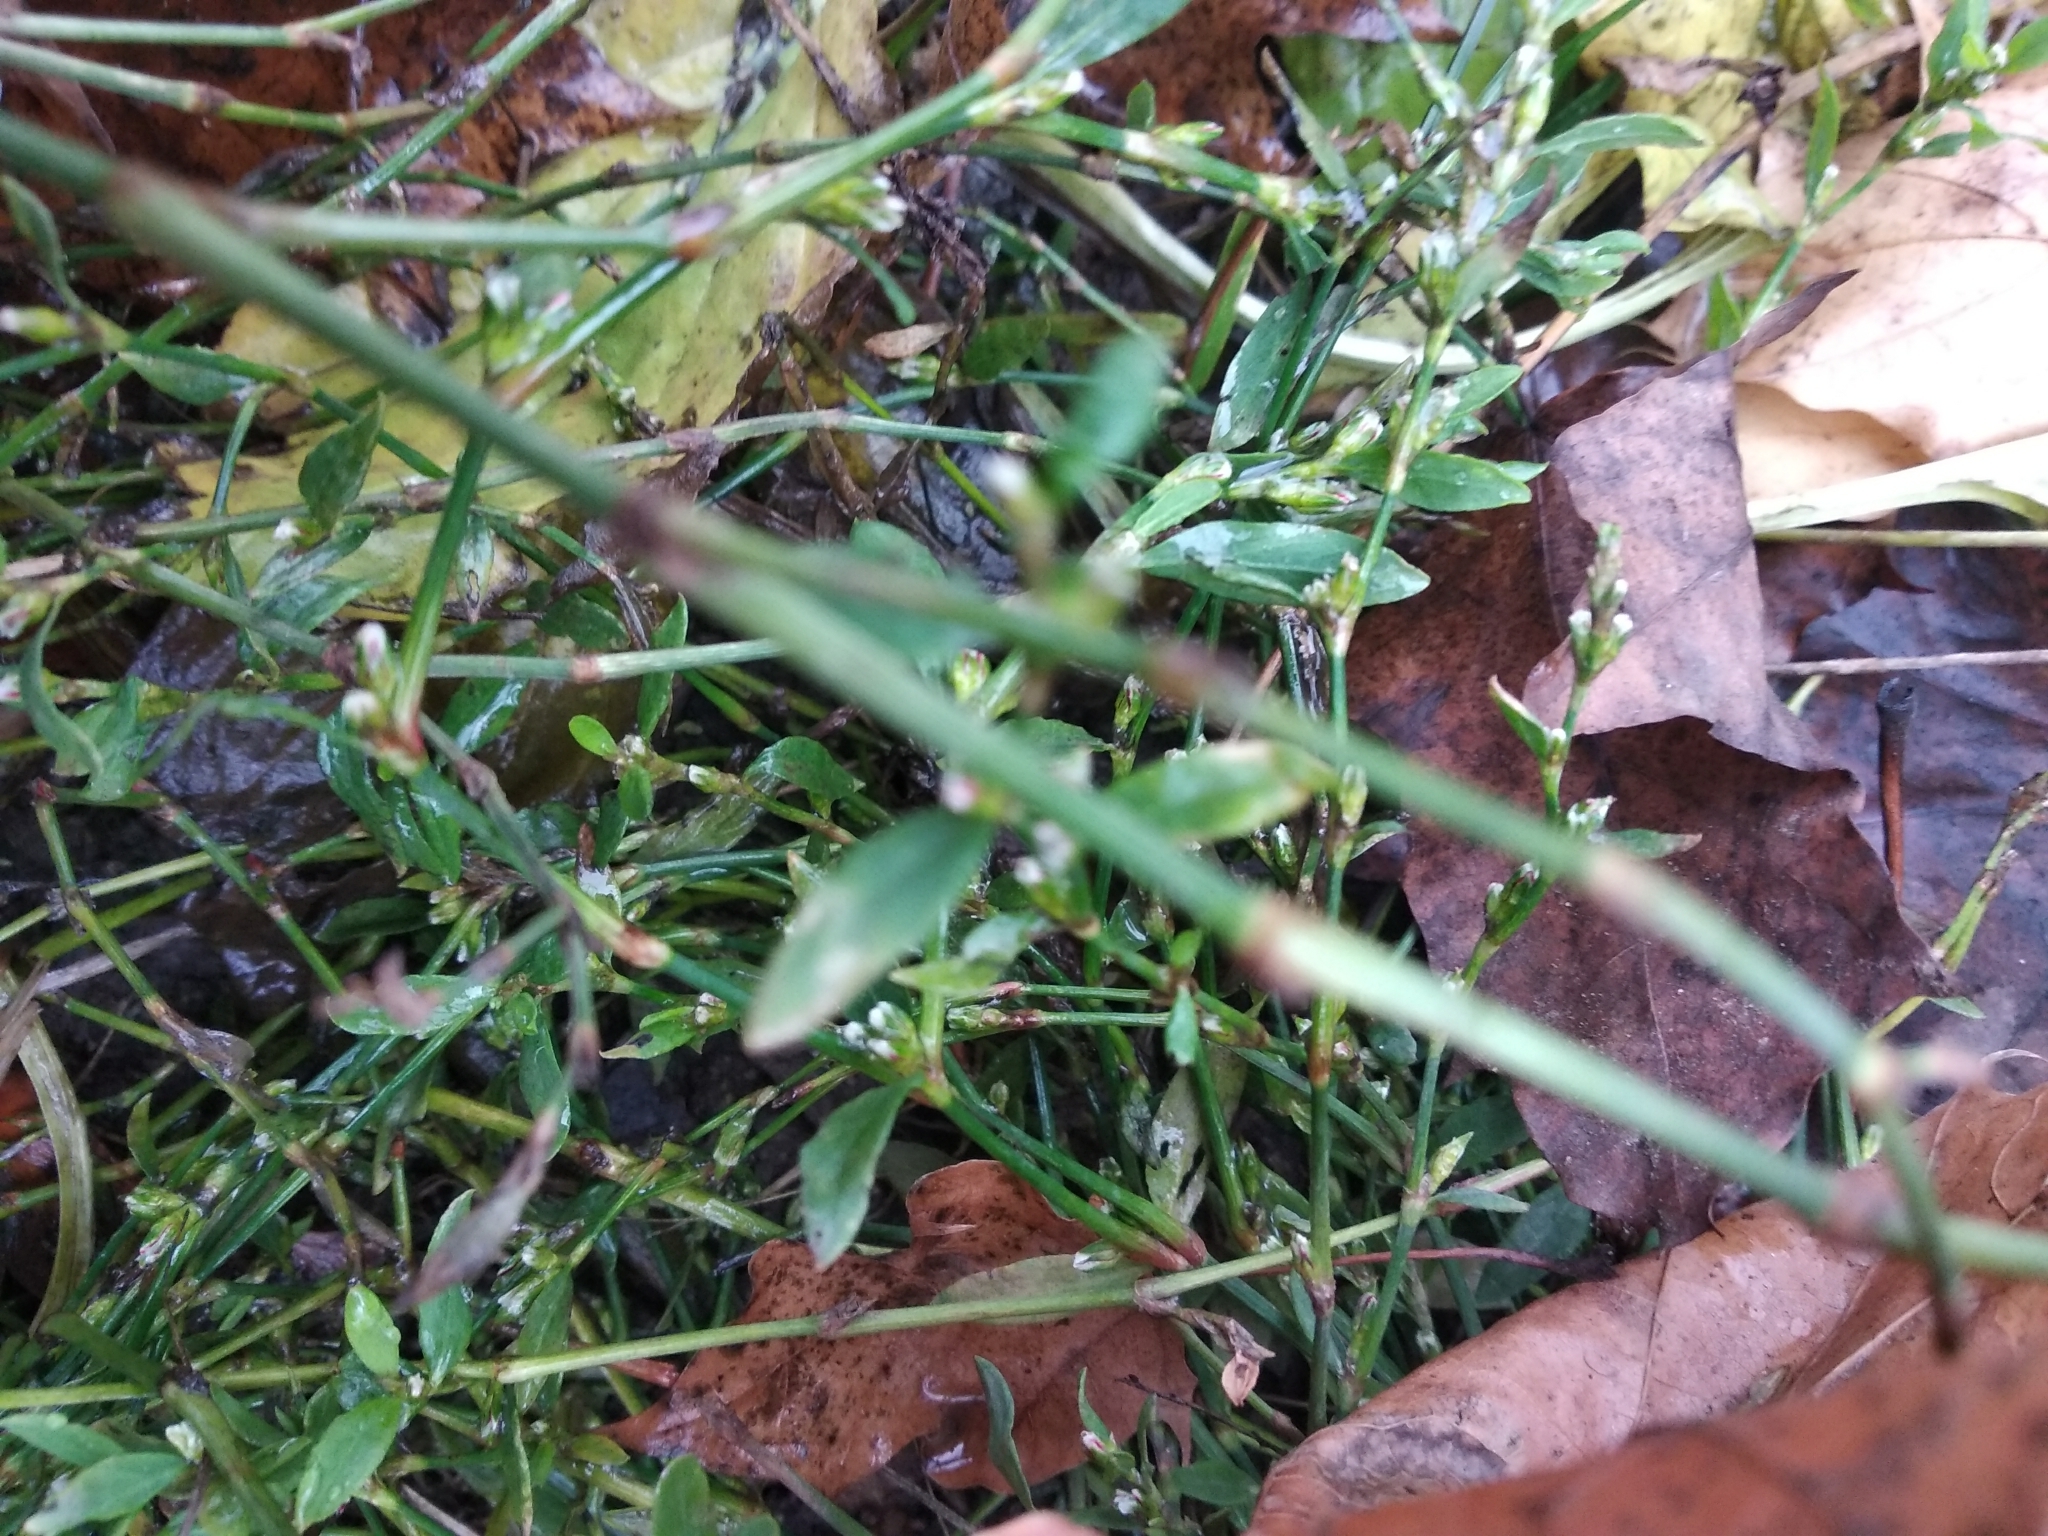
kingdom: Plantae
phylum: Tracheophyta
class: Magnoliopsida
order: Caryophyllales
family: Polygonaceae
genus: Polygonum
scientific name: Polygonum
